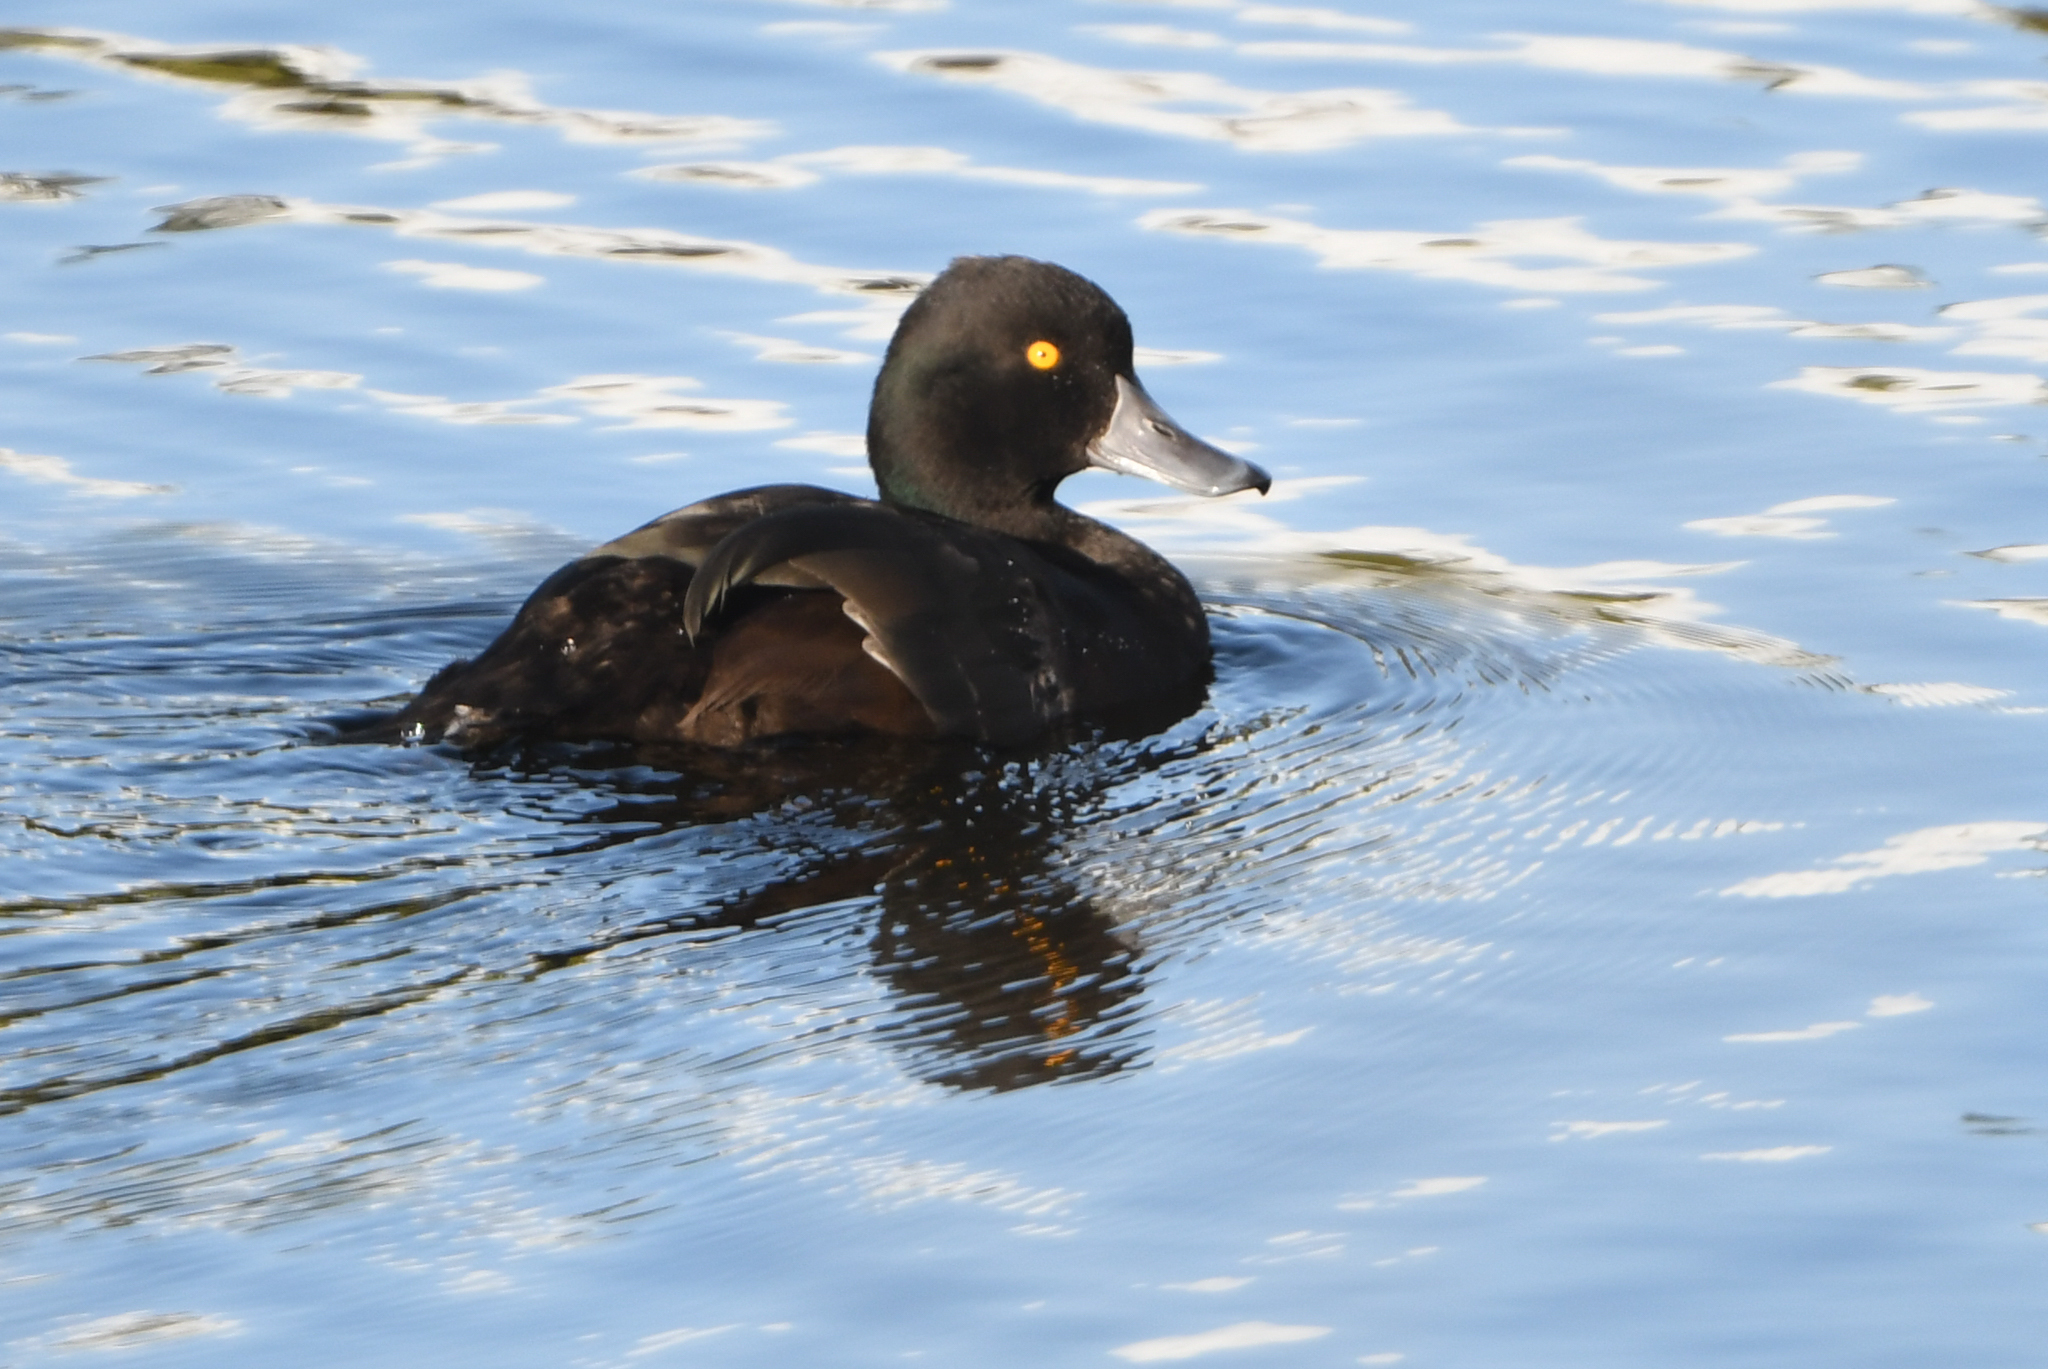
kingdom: Animalia
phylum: Chordata
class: Aves
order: Anseriformes
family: Anatidae
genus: Aythya
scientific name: Aythya novaeseelandiae
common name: New zealand scaup
